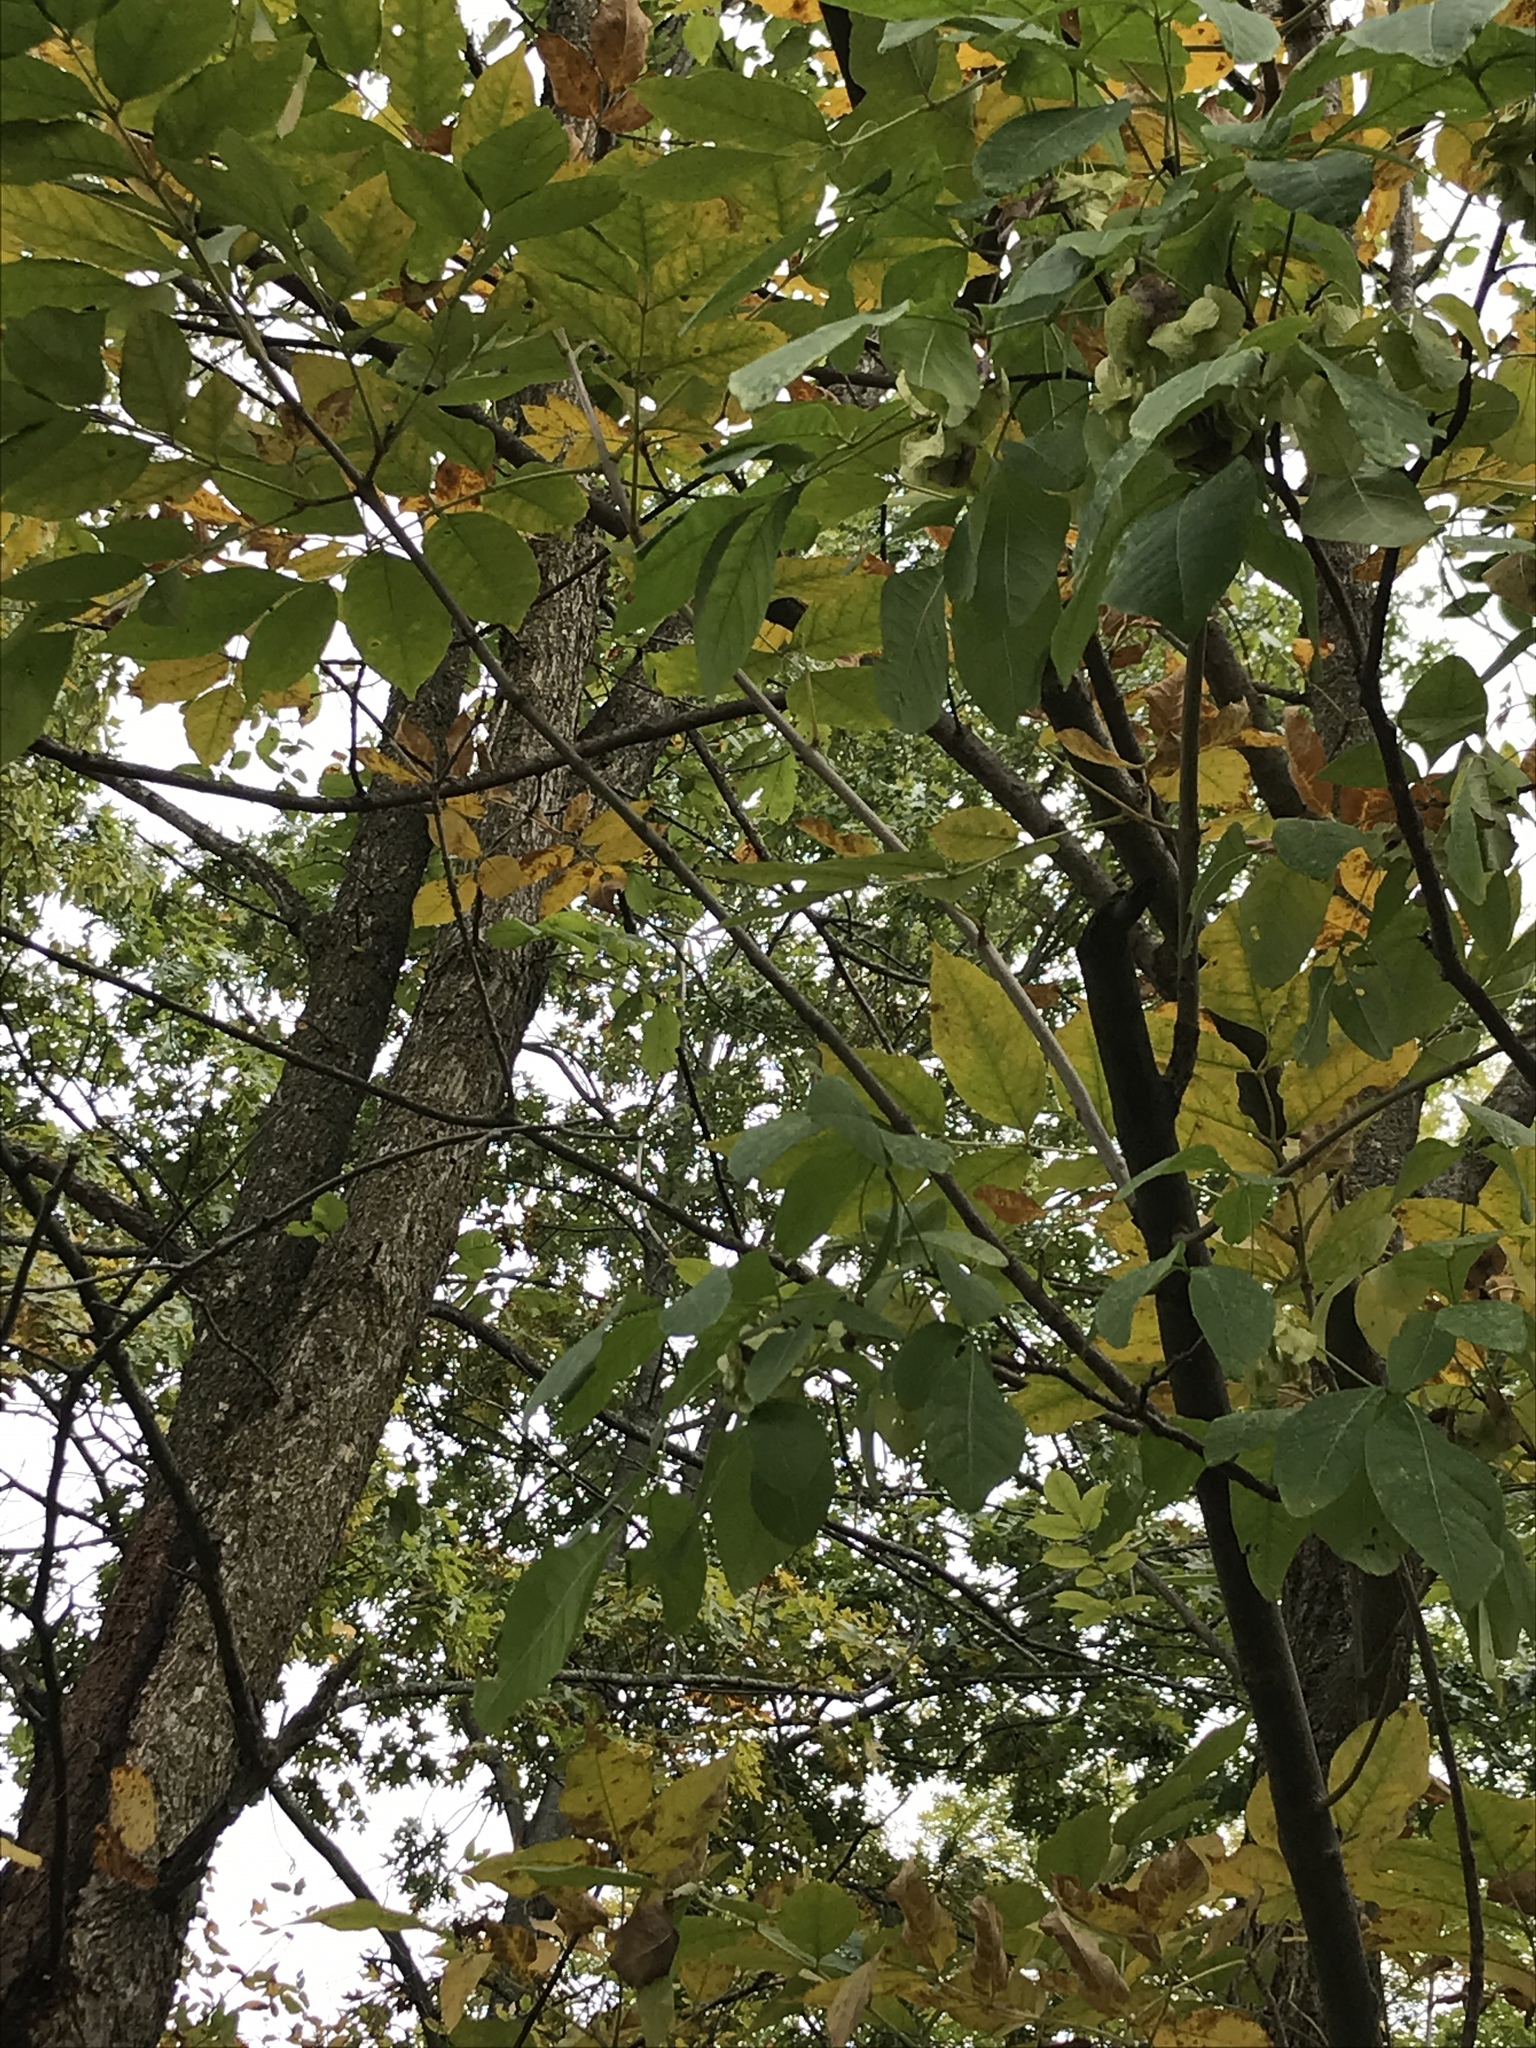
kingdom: Plantae
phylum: Tracheophyta
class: Magnoliopsida
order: Sapindales
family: Rutaceae
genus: Ptelea
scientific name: Ptelea trifoliata
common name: Common hop-tree
